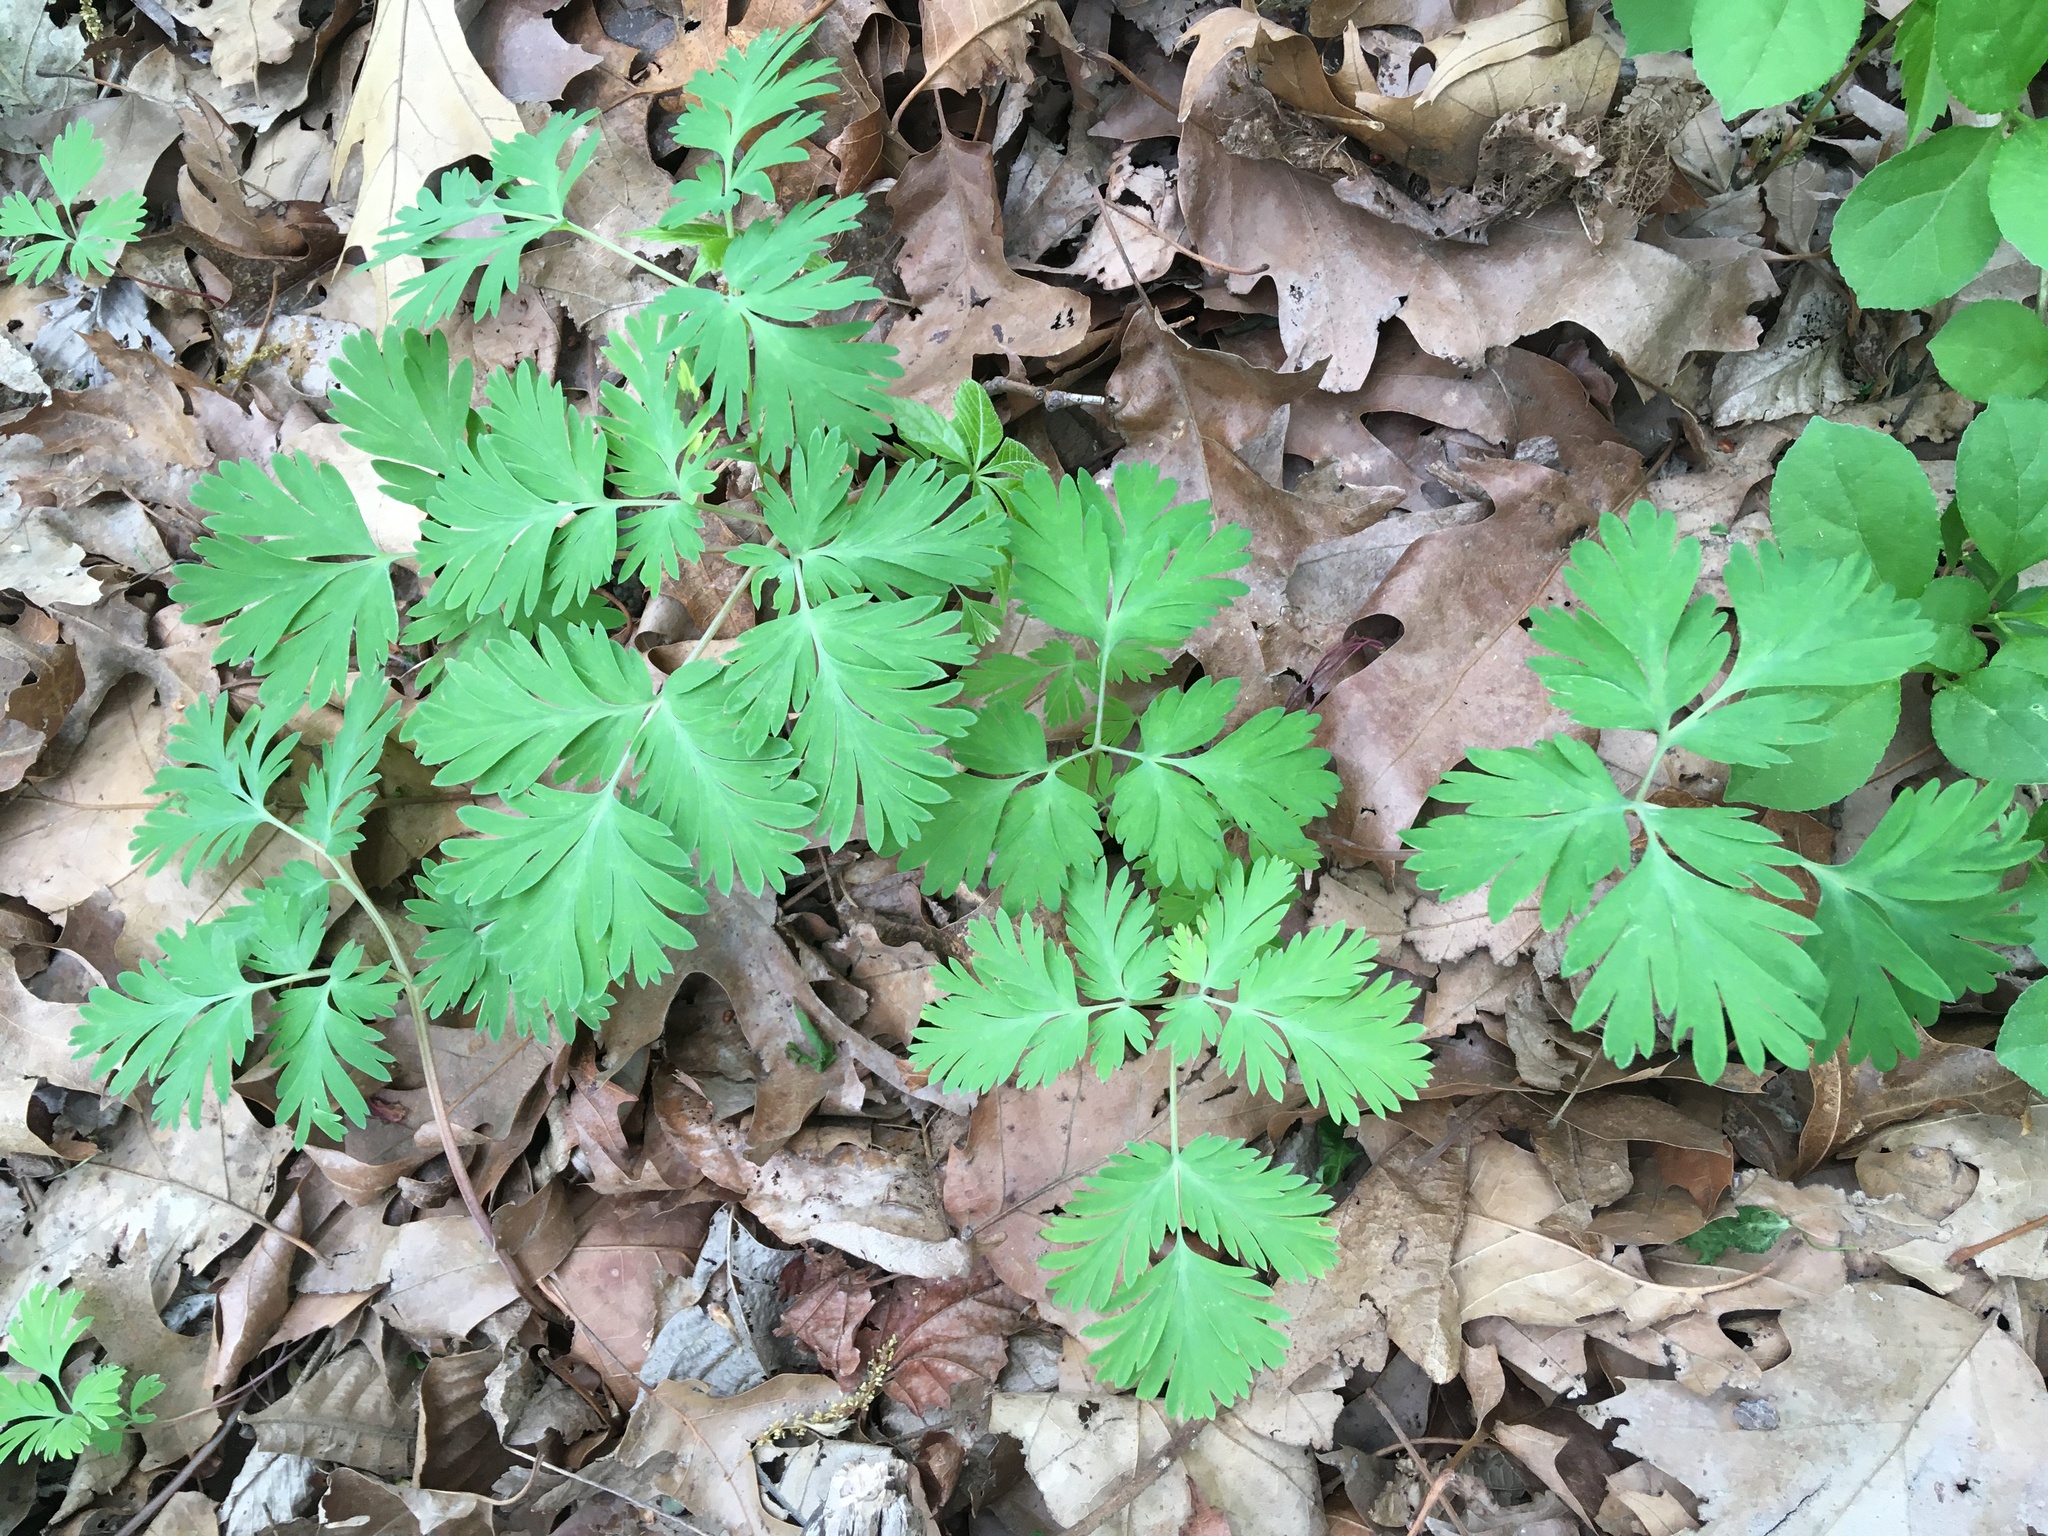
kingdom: Plantae
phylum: Tracheophyta
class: Magnoliopsida
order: Ranunculales
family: Papaveraceae
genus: Dicentra
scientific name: Dicentra cucullaria
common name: Dutchman's breeches
